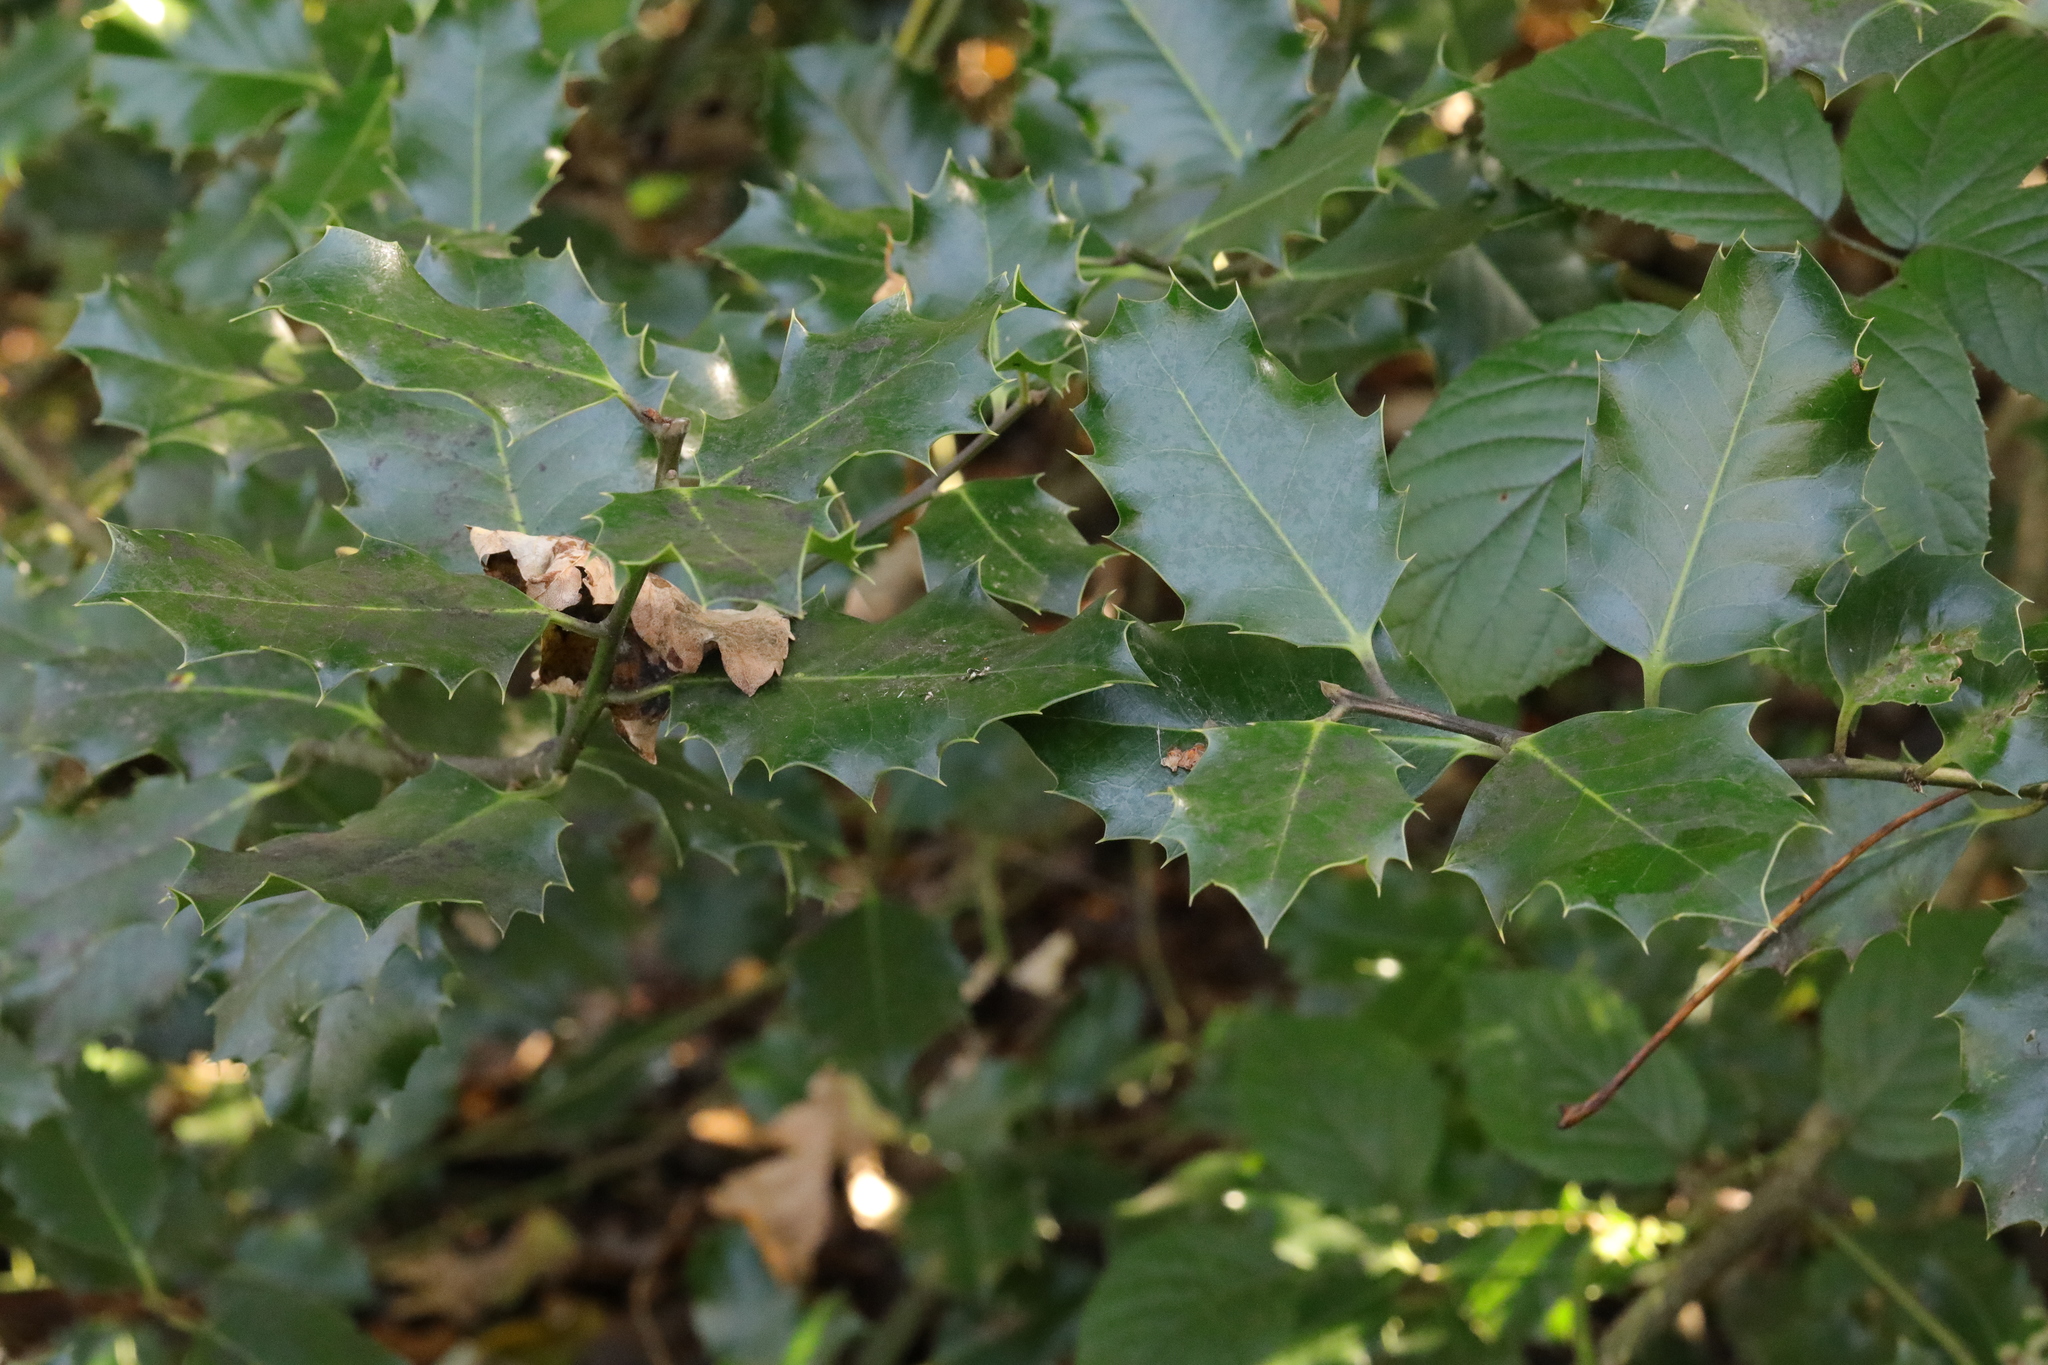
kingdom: Plantae
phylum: Tracheophyta
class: Magnoliopsida
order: Aquifoliales
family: Aquifoliaceae
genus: Ilex
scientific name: Ilex aquifolium
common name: English holly
